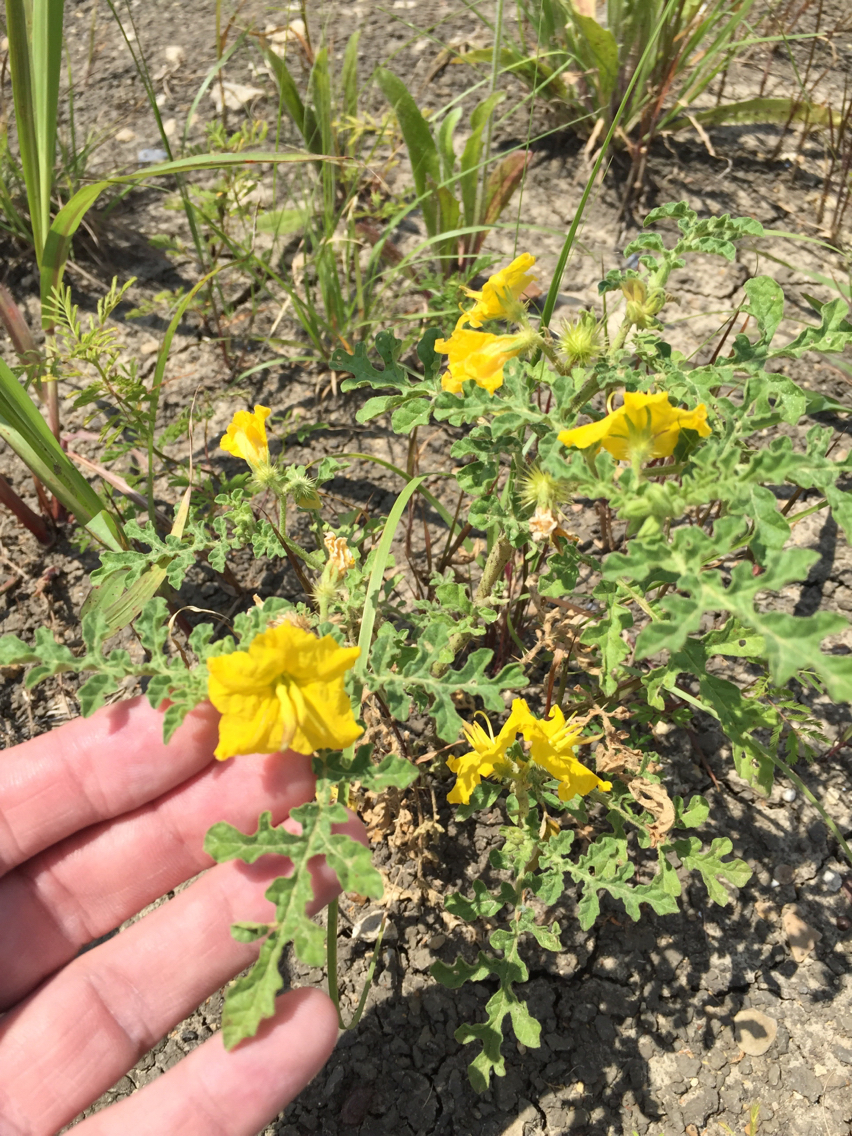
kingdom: Plantae
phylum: Tracheophyta
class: Magnoliopsida
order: Solanales
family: Solanaceae
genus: Solanum
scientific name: Solanum angustifolium
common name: Buffalobur nightshade
